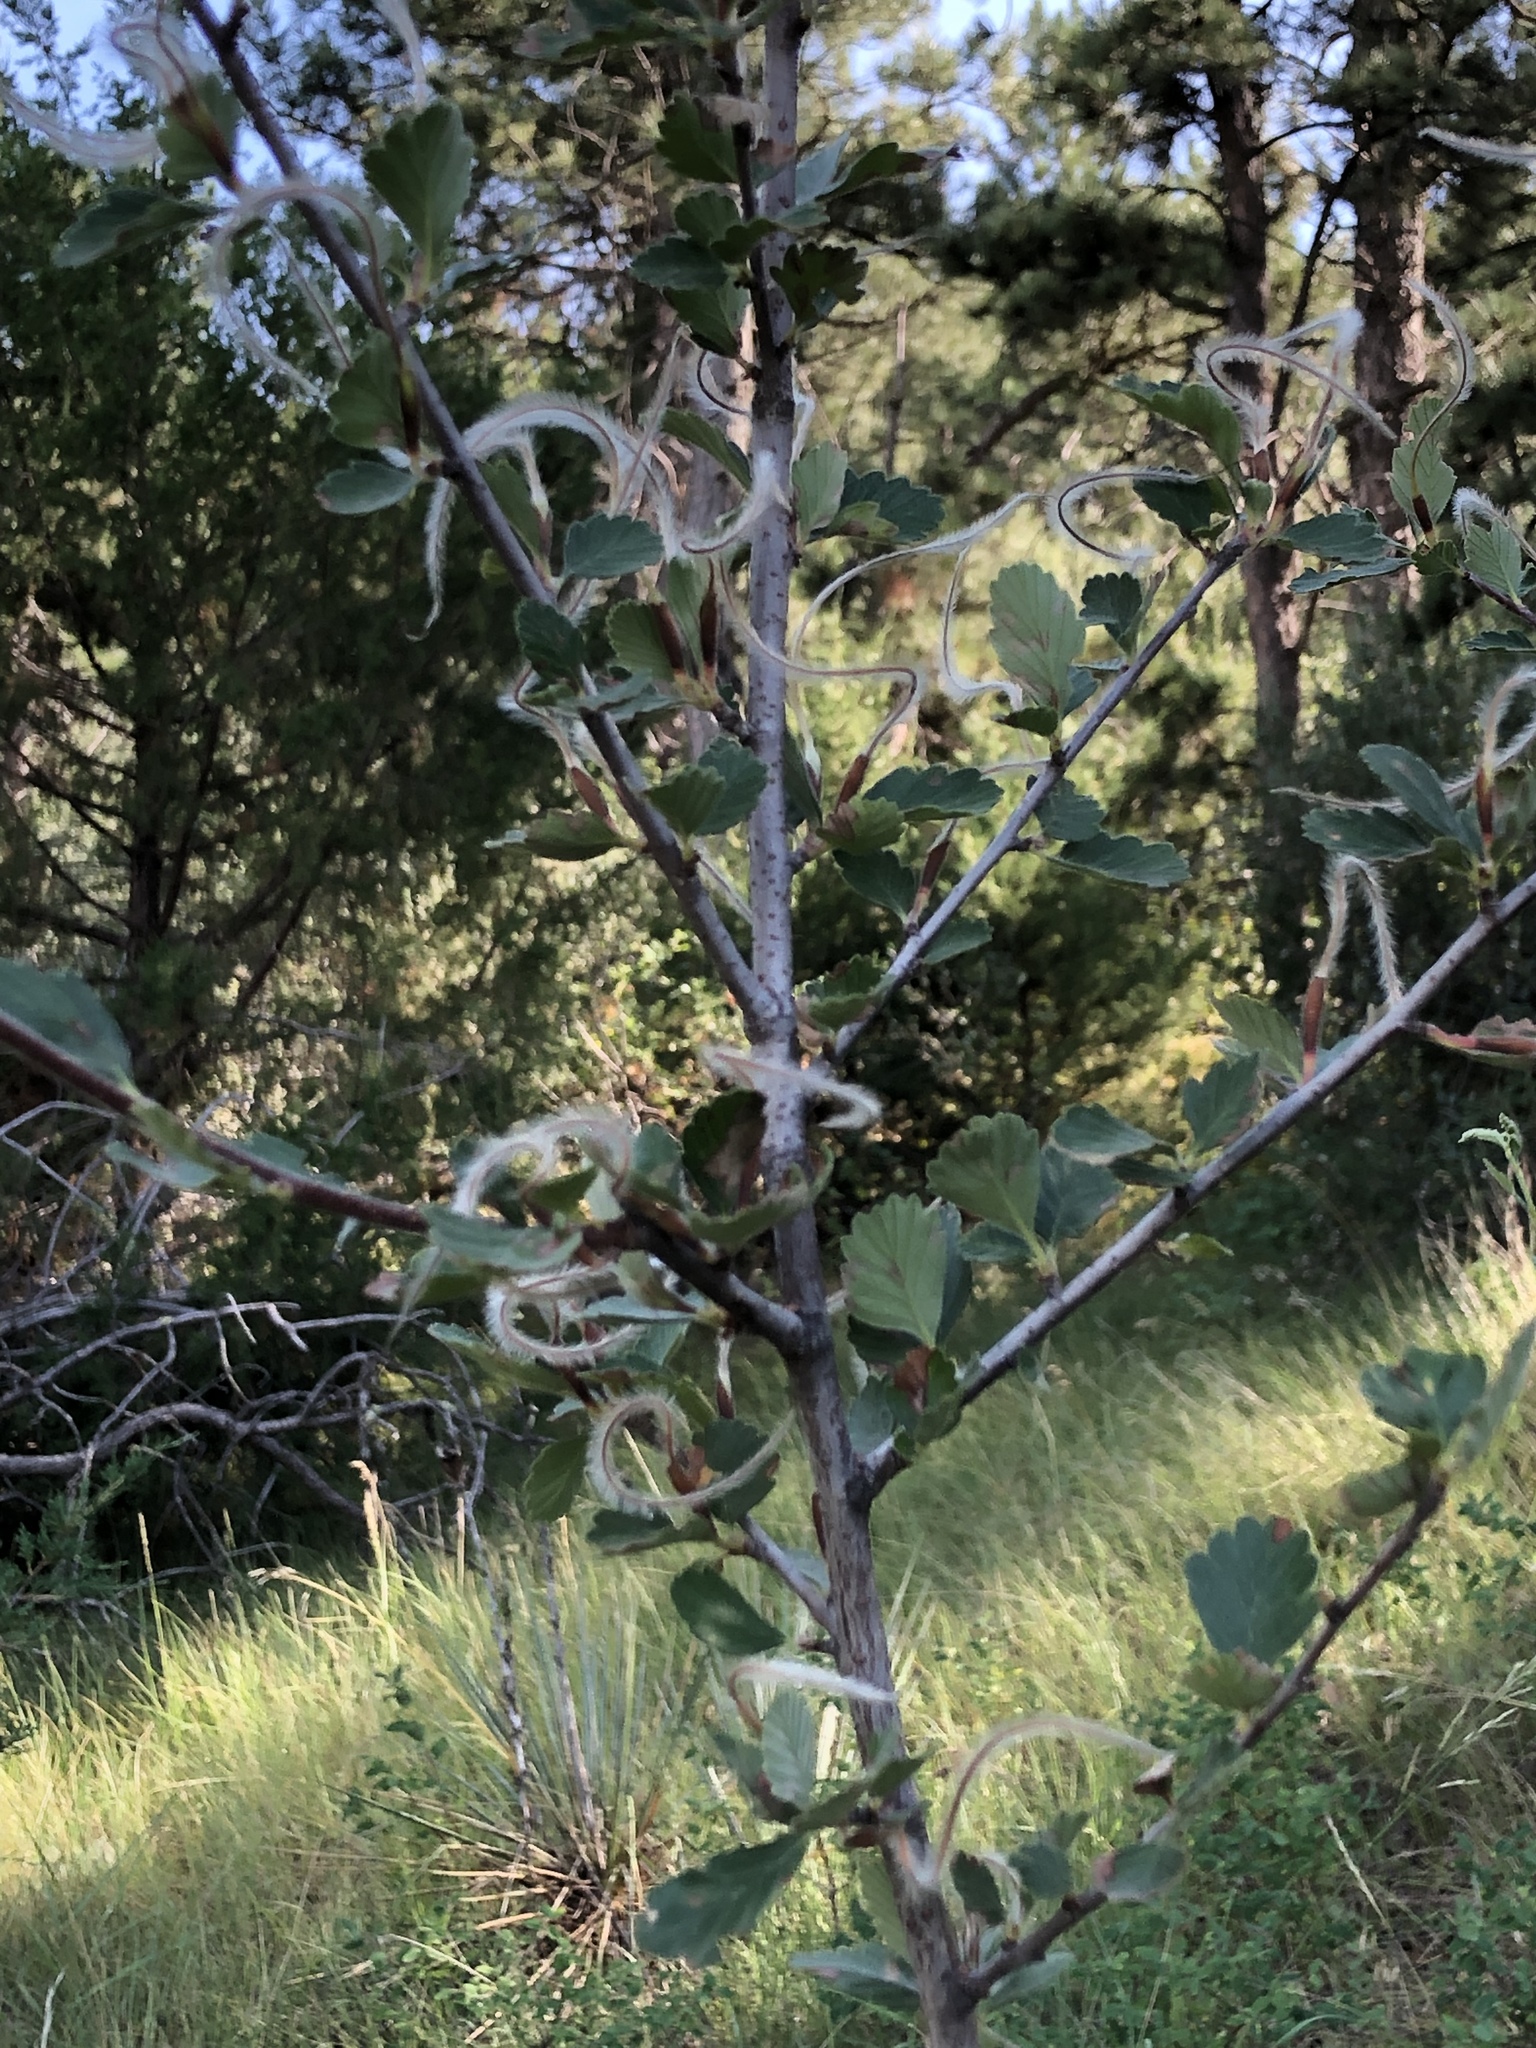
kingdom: Plantae
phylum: Tracheophyta
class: Magnoliopsida
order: Rosales
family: Rosaceae
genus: Cercocarpus
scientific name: Cercocarpus montanus
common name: Alder-leaf cercocarpus
